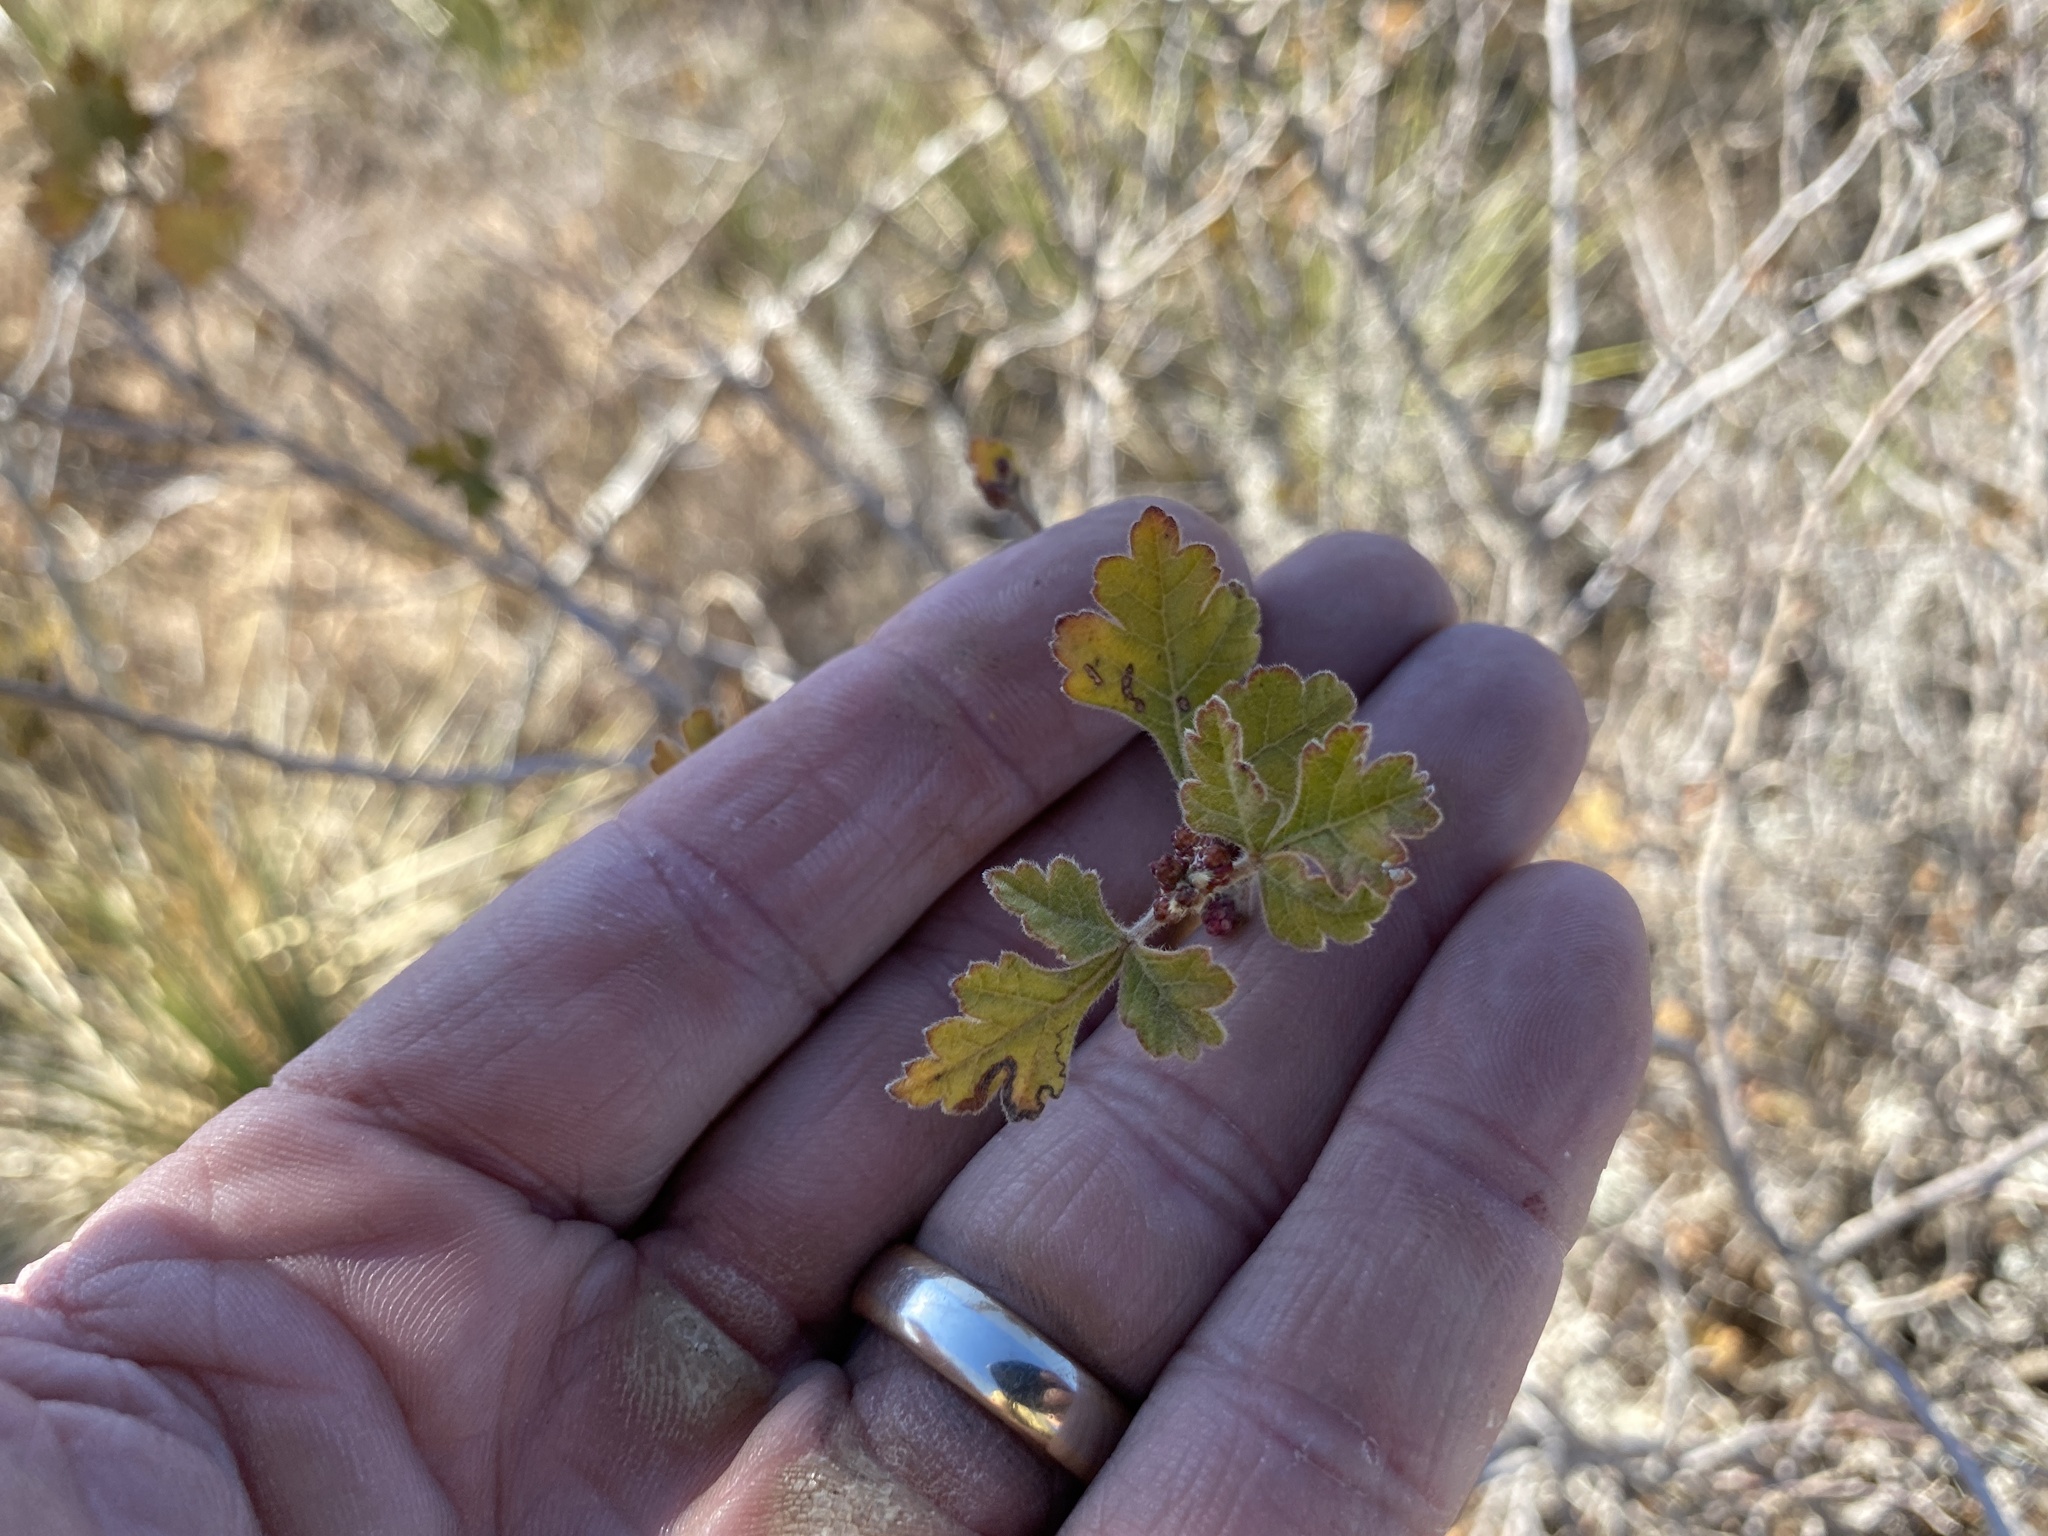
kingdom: Plantae
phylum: Tracheophyta
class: Magnoliopsida
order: Sapindales
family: Anacardiaceae
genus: Rhus
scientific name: Rhus aromatica
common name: Aromatic sumac
